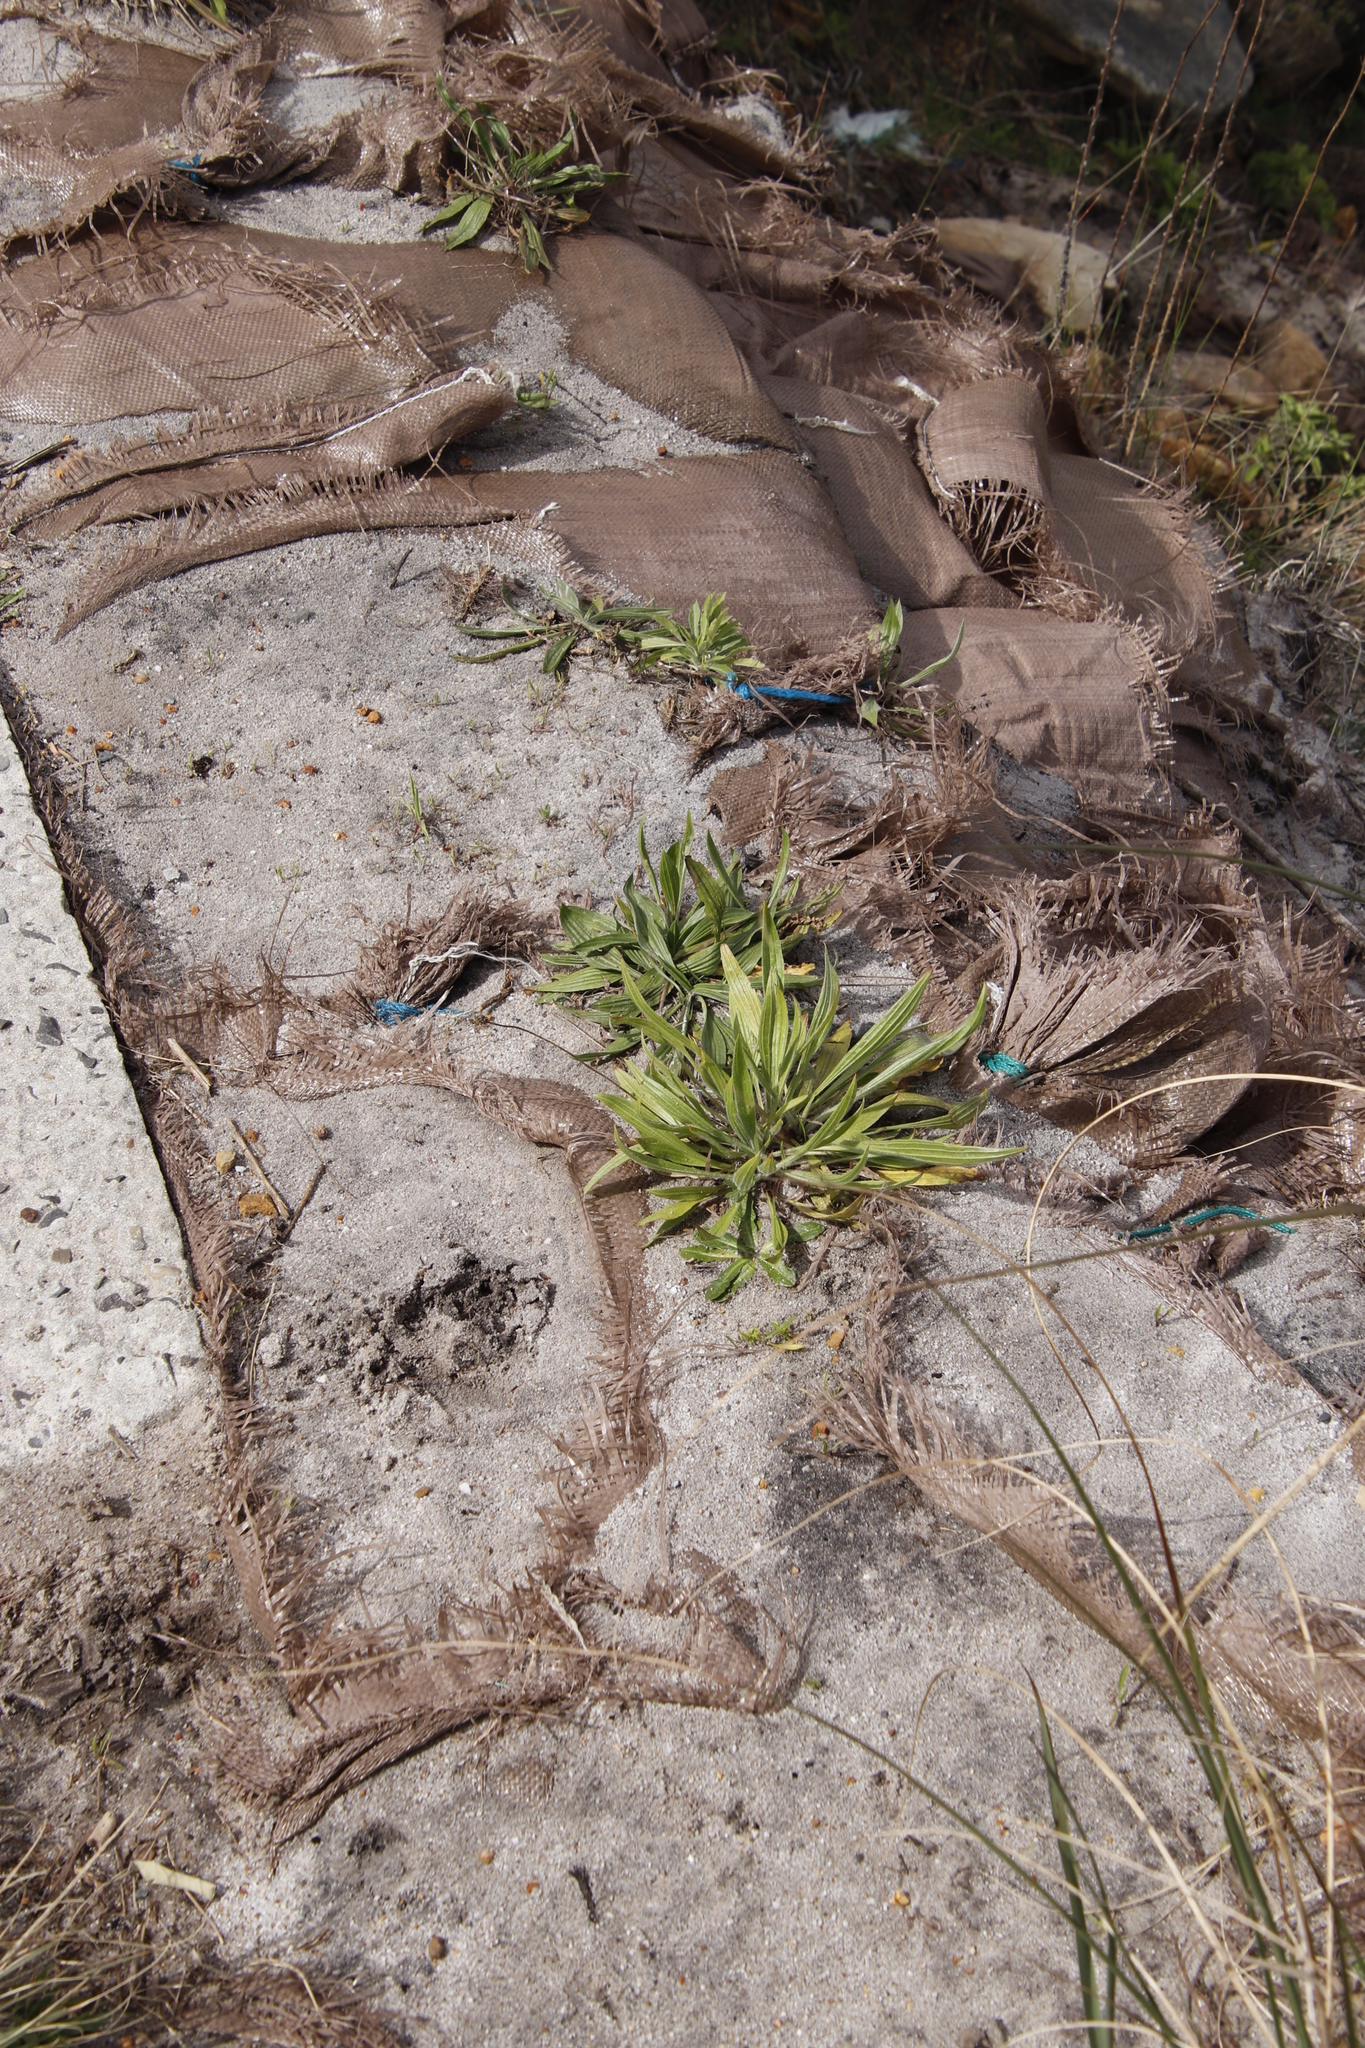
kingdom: Plantae
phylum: Tracheophyta
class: Magnoliopsida
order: Lamiales
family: Plantaginaceae
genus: Plantago
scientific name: Plantago lanceolata
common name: Ribwort plantain
